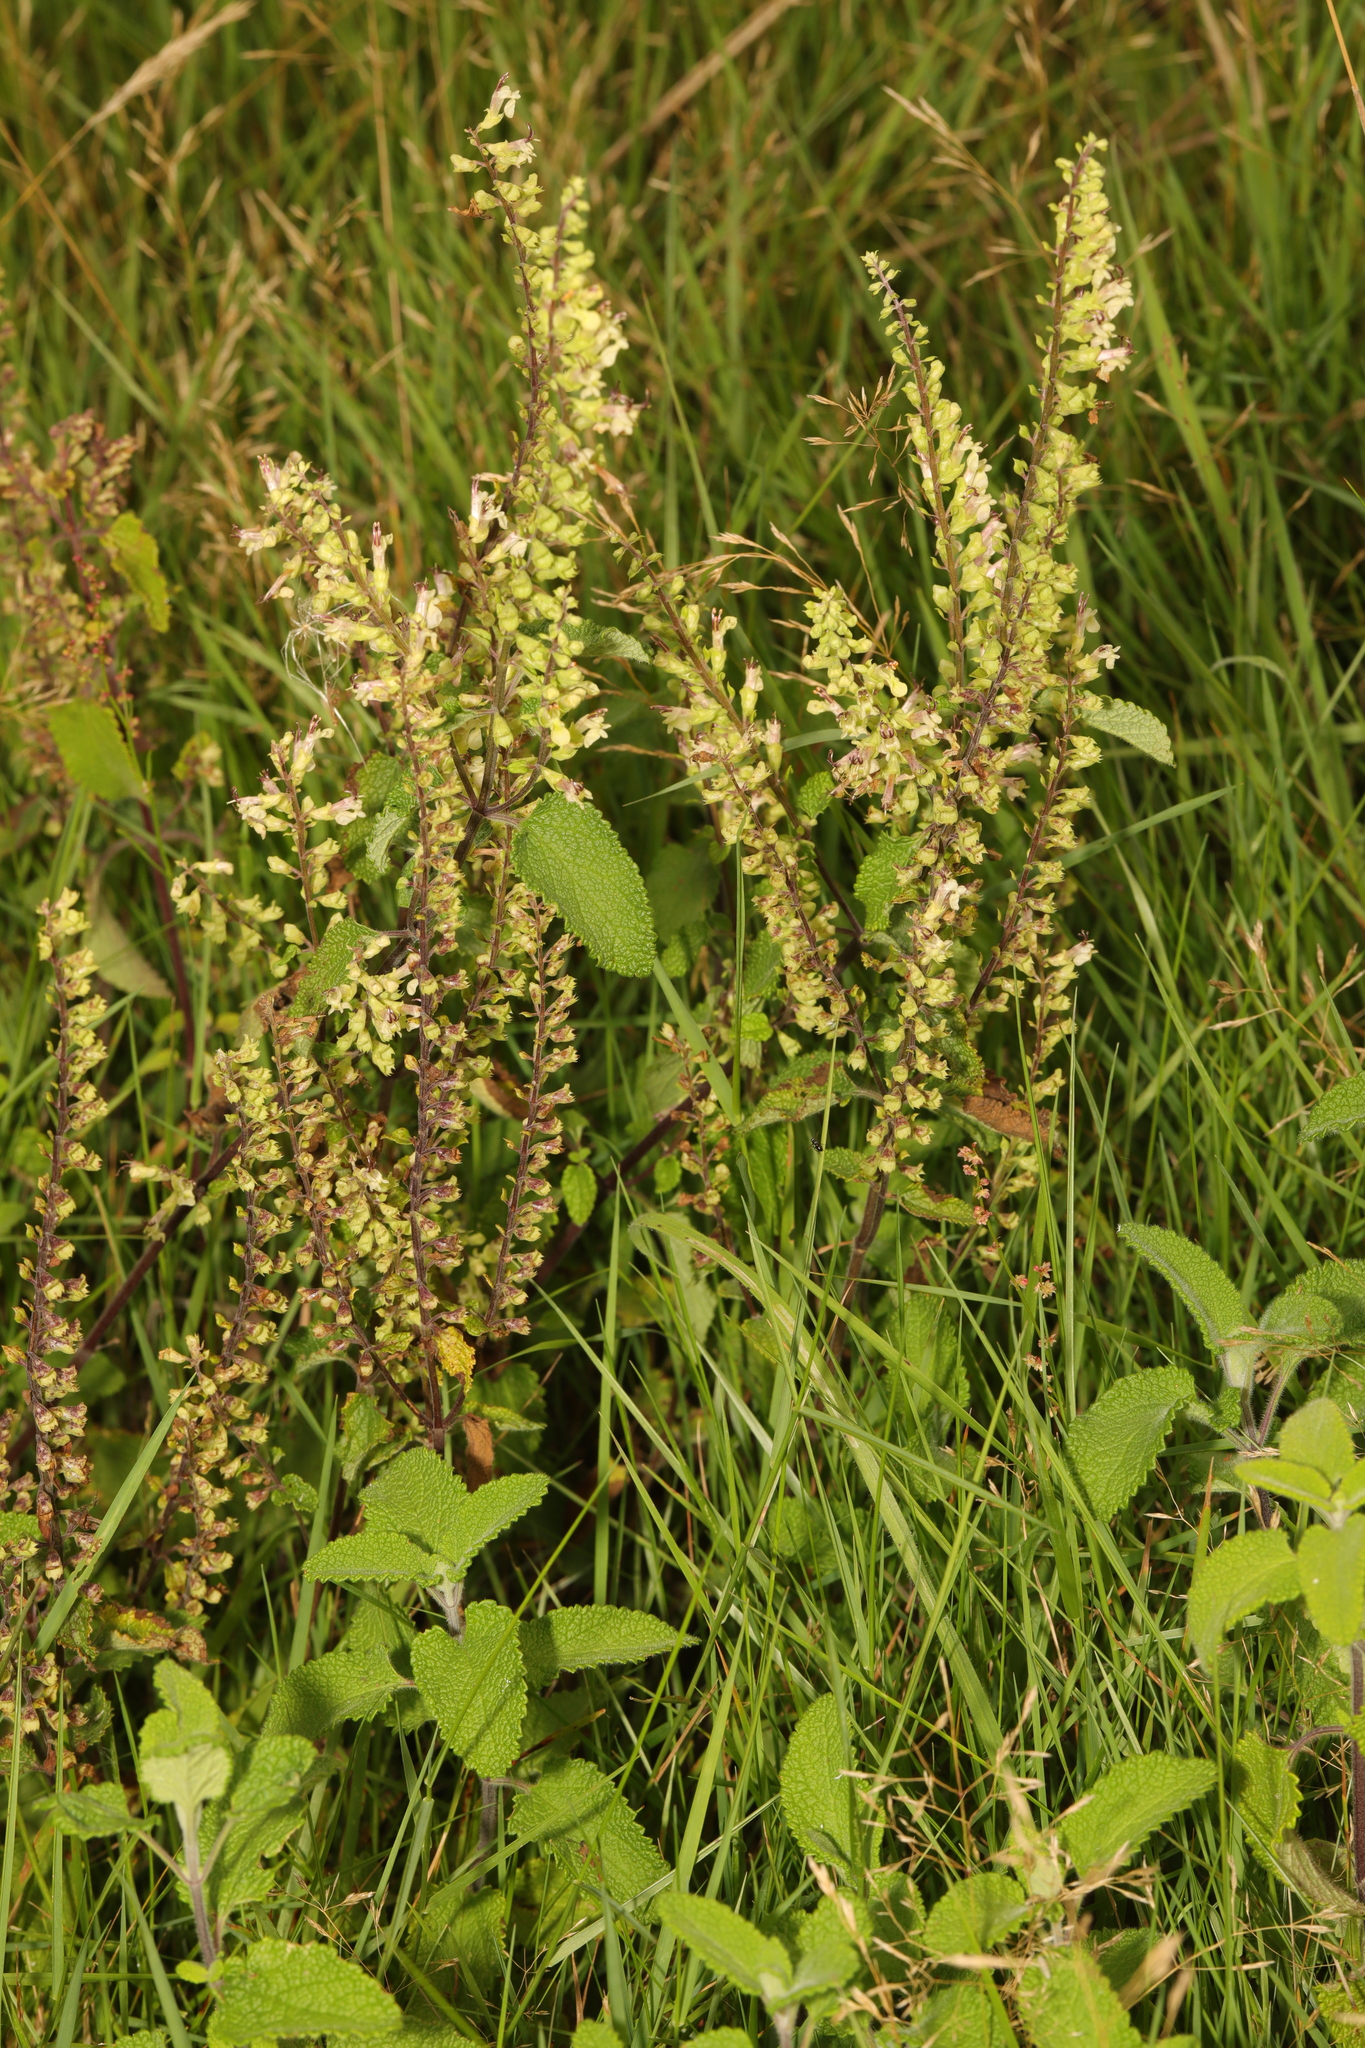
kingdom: Plantae
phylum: Tracheophyta
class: Magnoliopsida
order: Lamiales
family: Lamiaceae
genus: Teucrium
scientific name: Teucrium scorodonia
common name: Woodland germander
